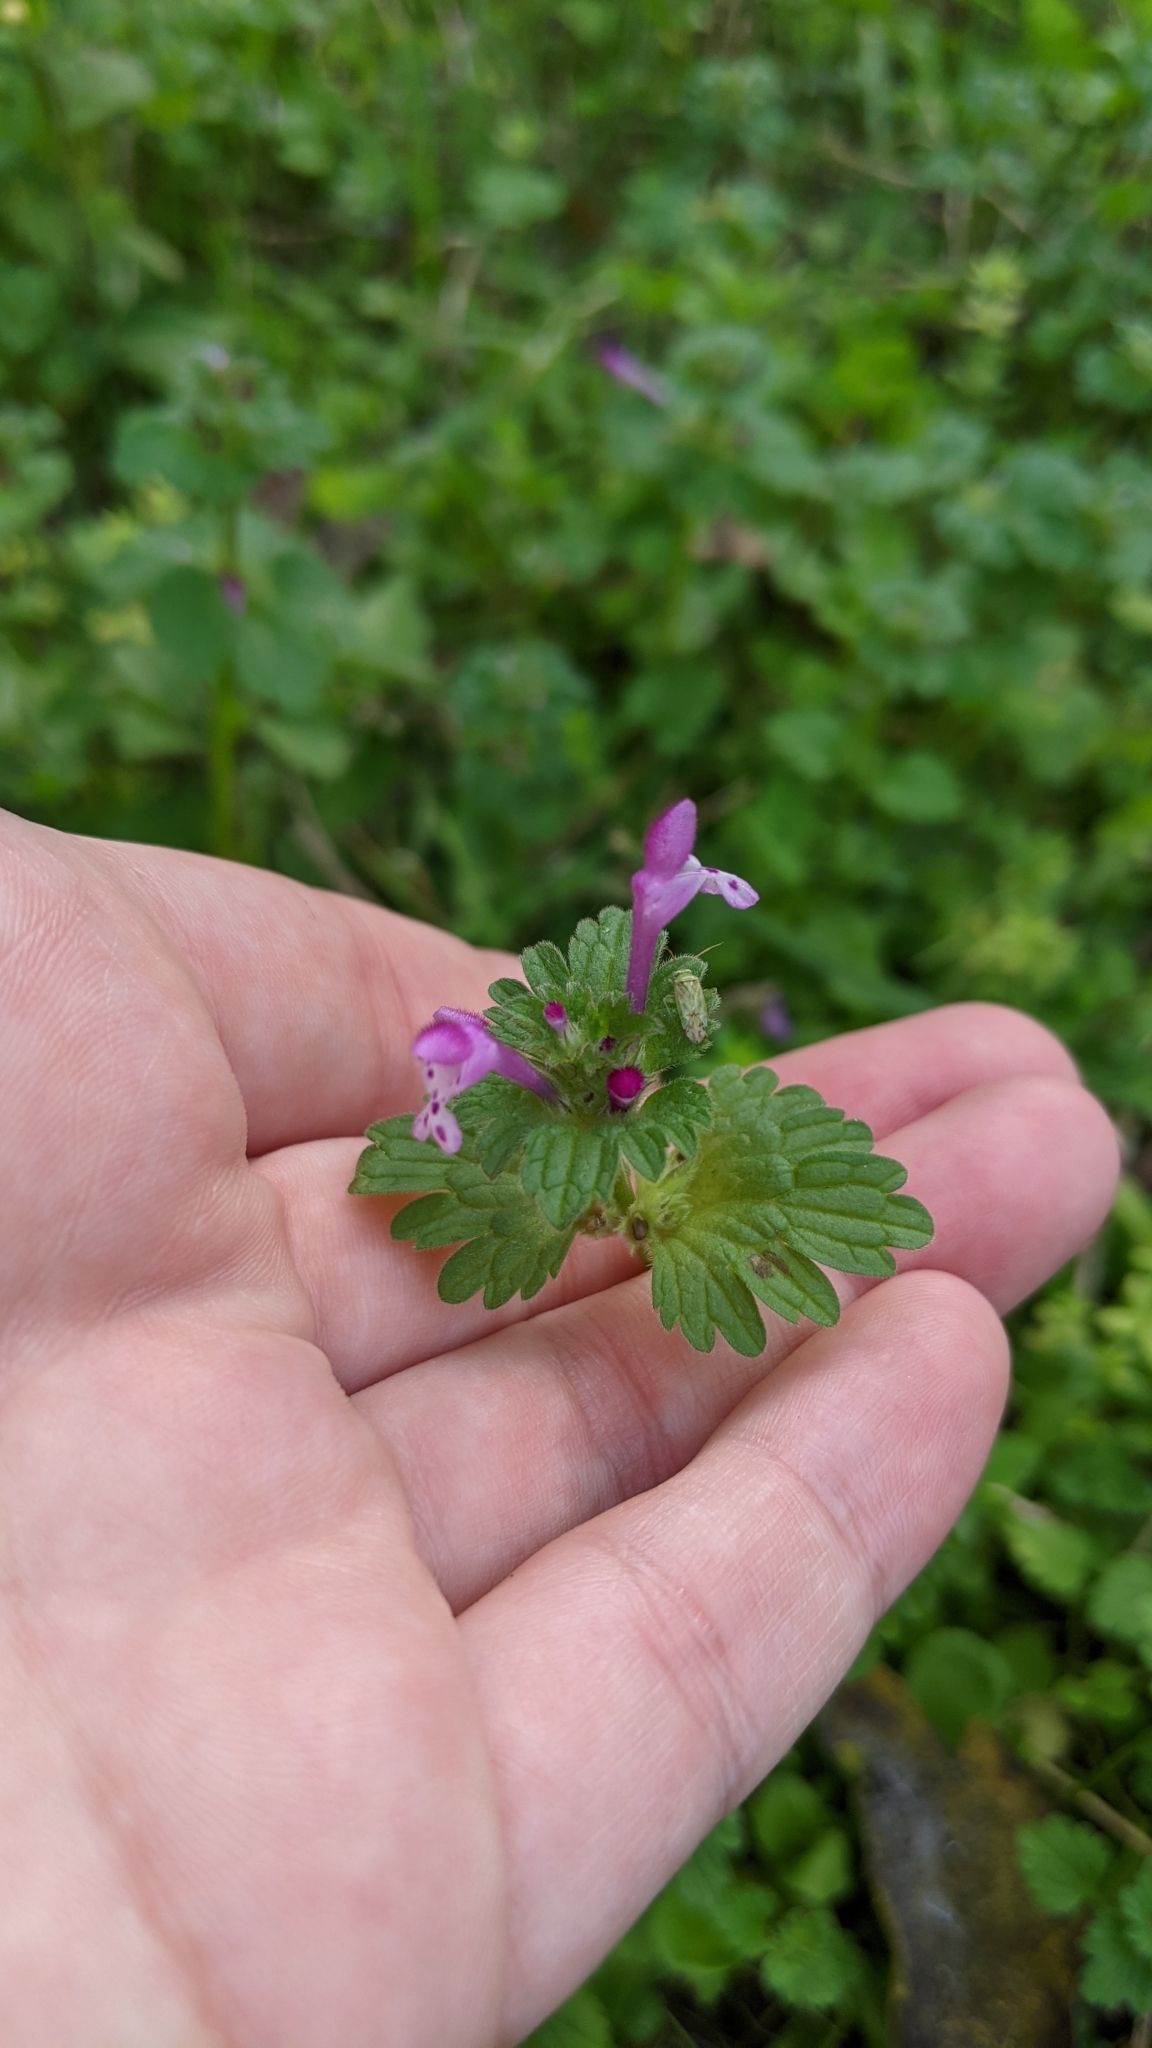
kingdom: Plantae
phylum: Tracheophyta
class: Magnoliopsida
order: Lamiales
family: Lamiaceae
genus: Lamium
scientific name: Lamium amplexicaule
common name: Henbit dead-nettle
